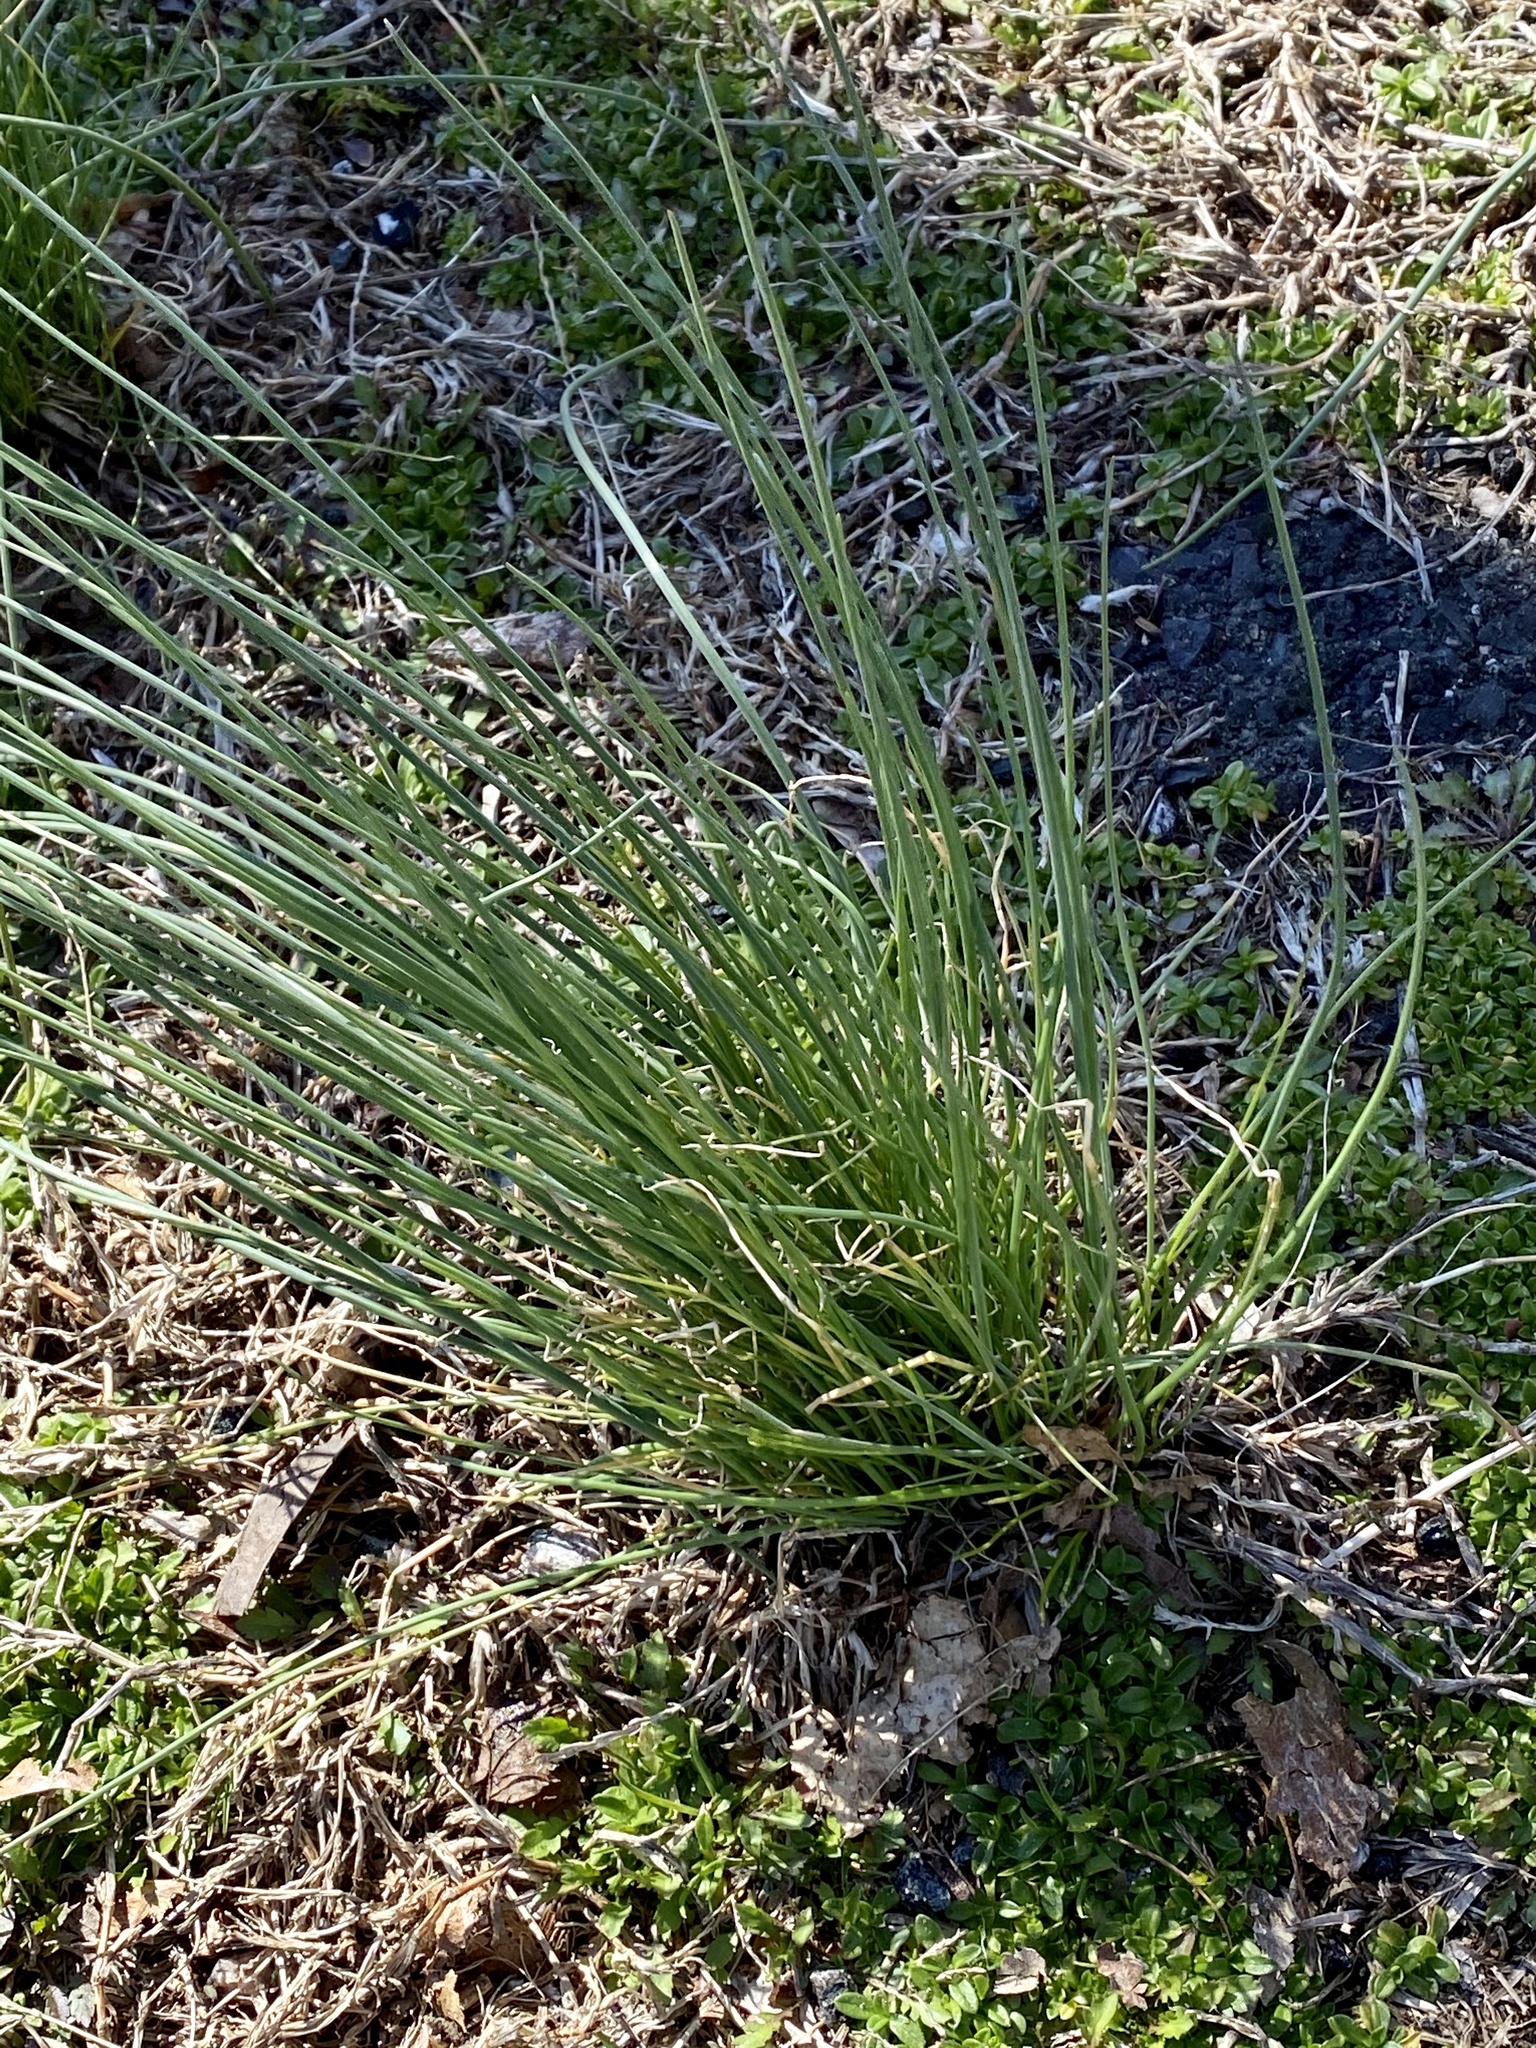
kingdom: Plantae
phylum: Tracheophyta
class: Liliopsida
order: Asparagales
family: Amaryllidaceae
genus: Allium
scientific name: Allium vineale
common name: Crow garlic
